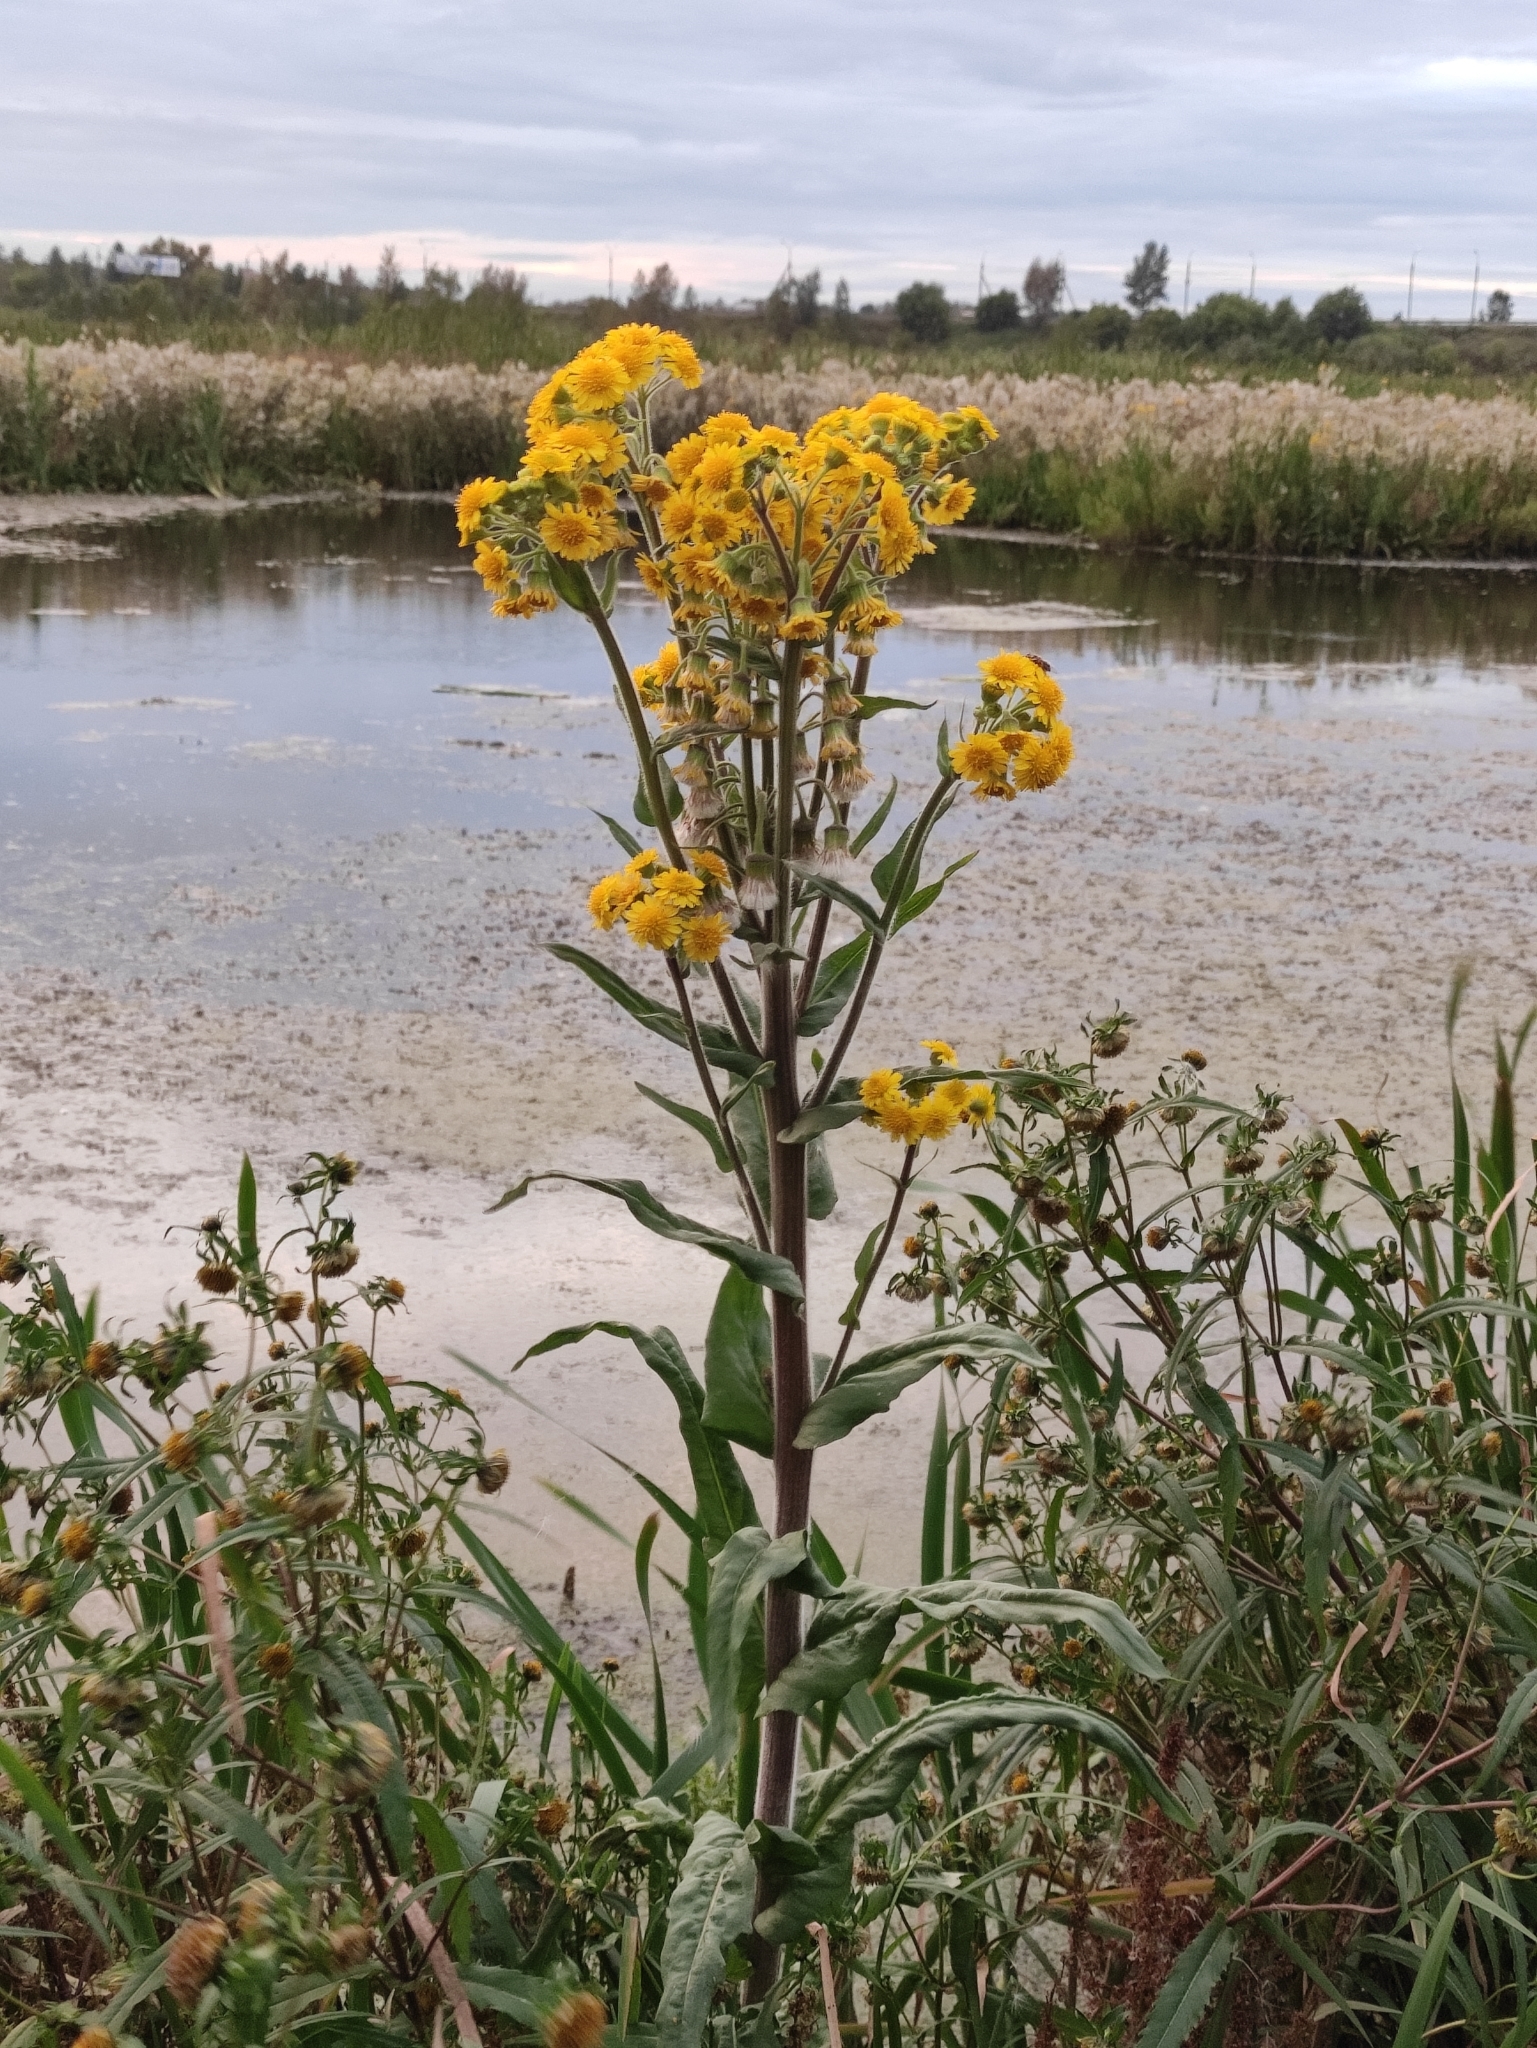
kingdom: Plantae
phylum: Tracheophyta
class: Magnoliopsida
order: Asterales
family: Asteraceae
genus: Tephroseris
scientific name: Tephroseris palustris
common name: Marsh fleawort
